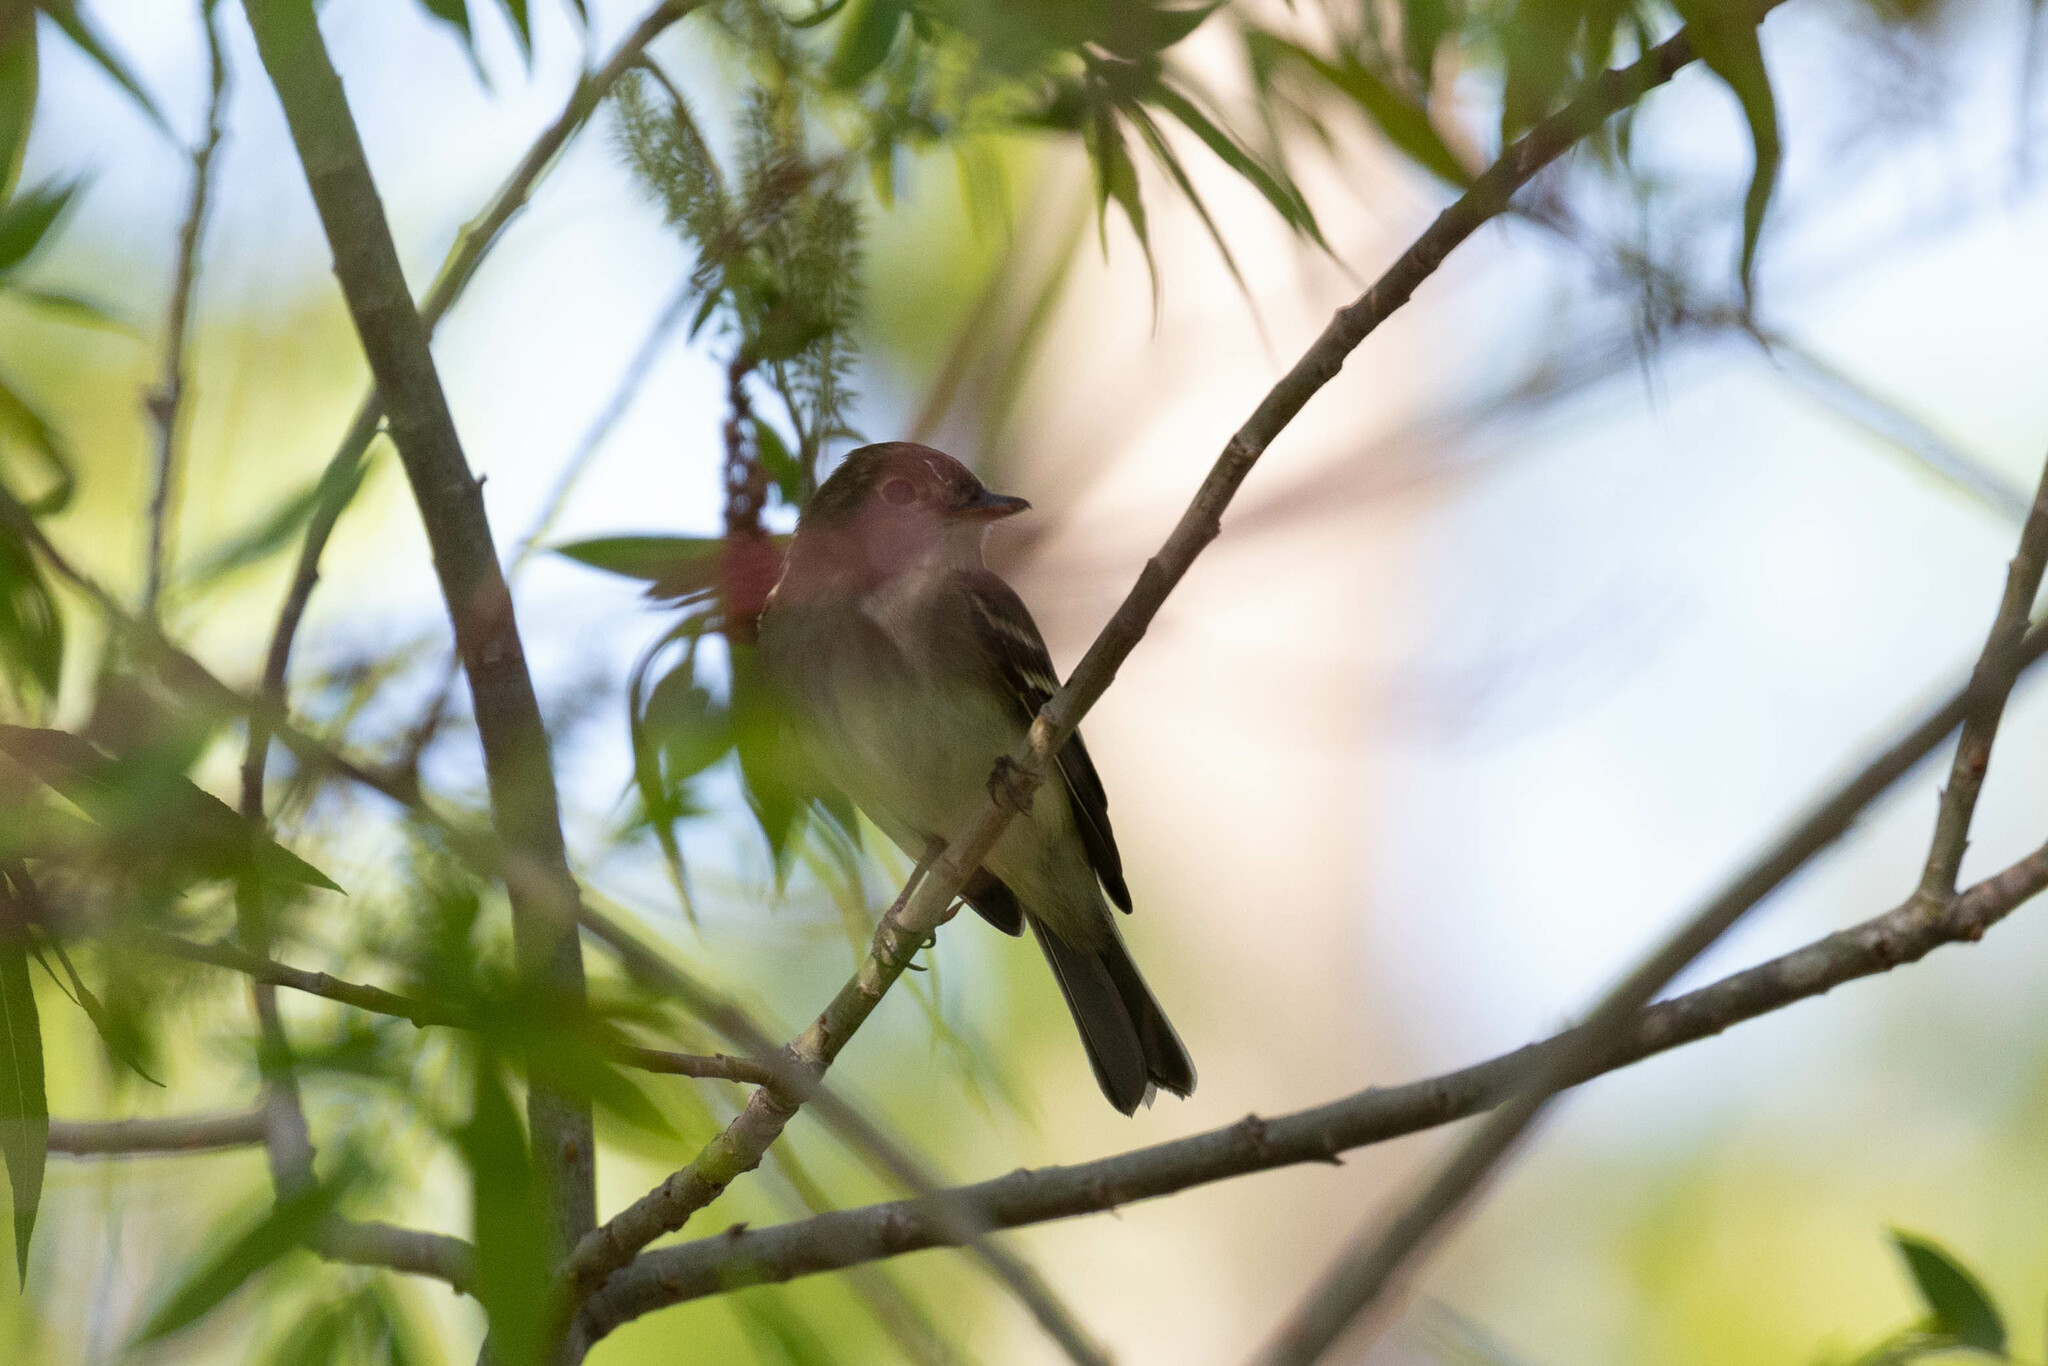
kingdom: Animalia
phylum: Chordata
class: Aves
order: Passeriformes
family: Tyrannidae
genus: Empidonax
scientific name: Empidonax minimus
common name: Least flycatcher
